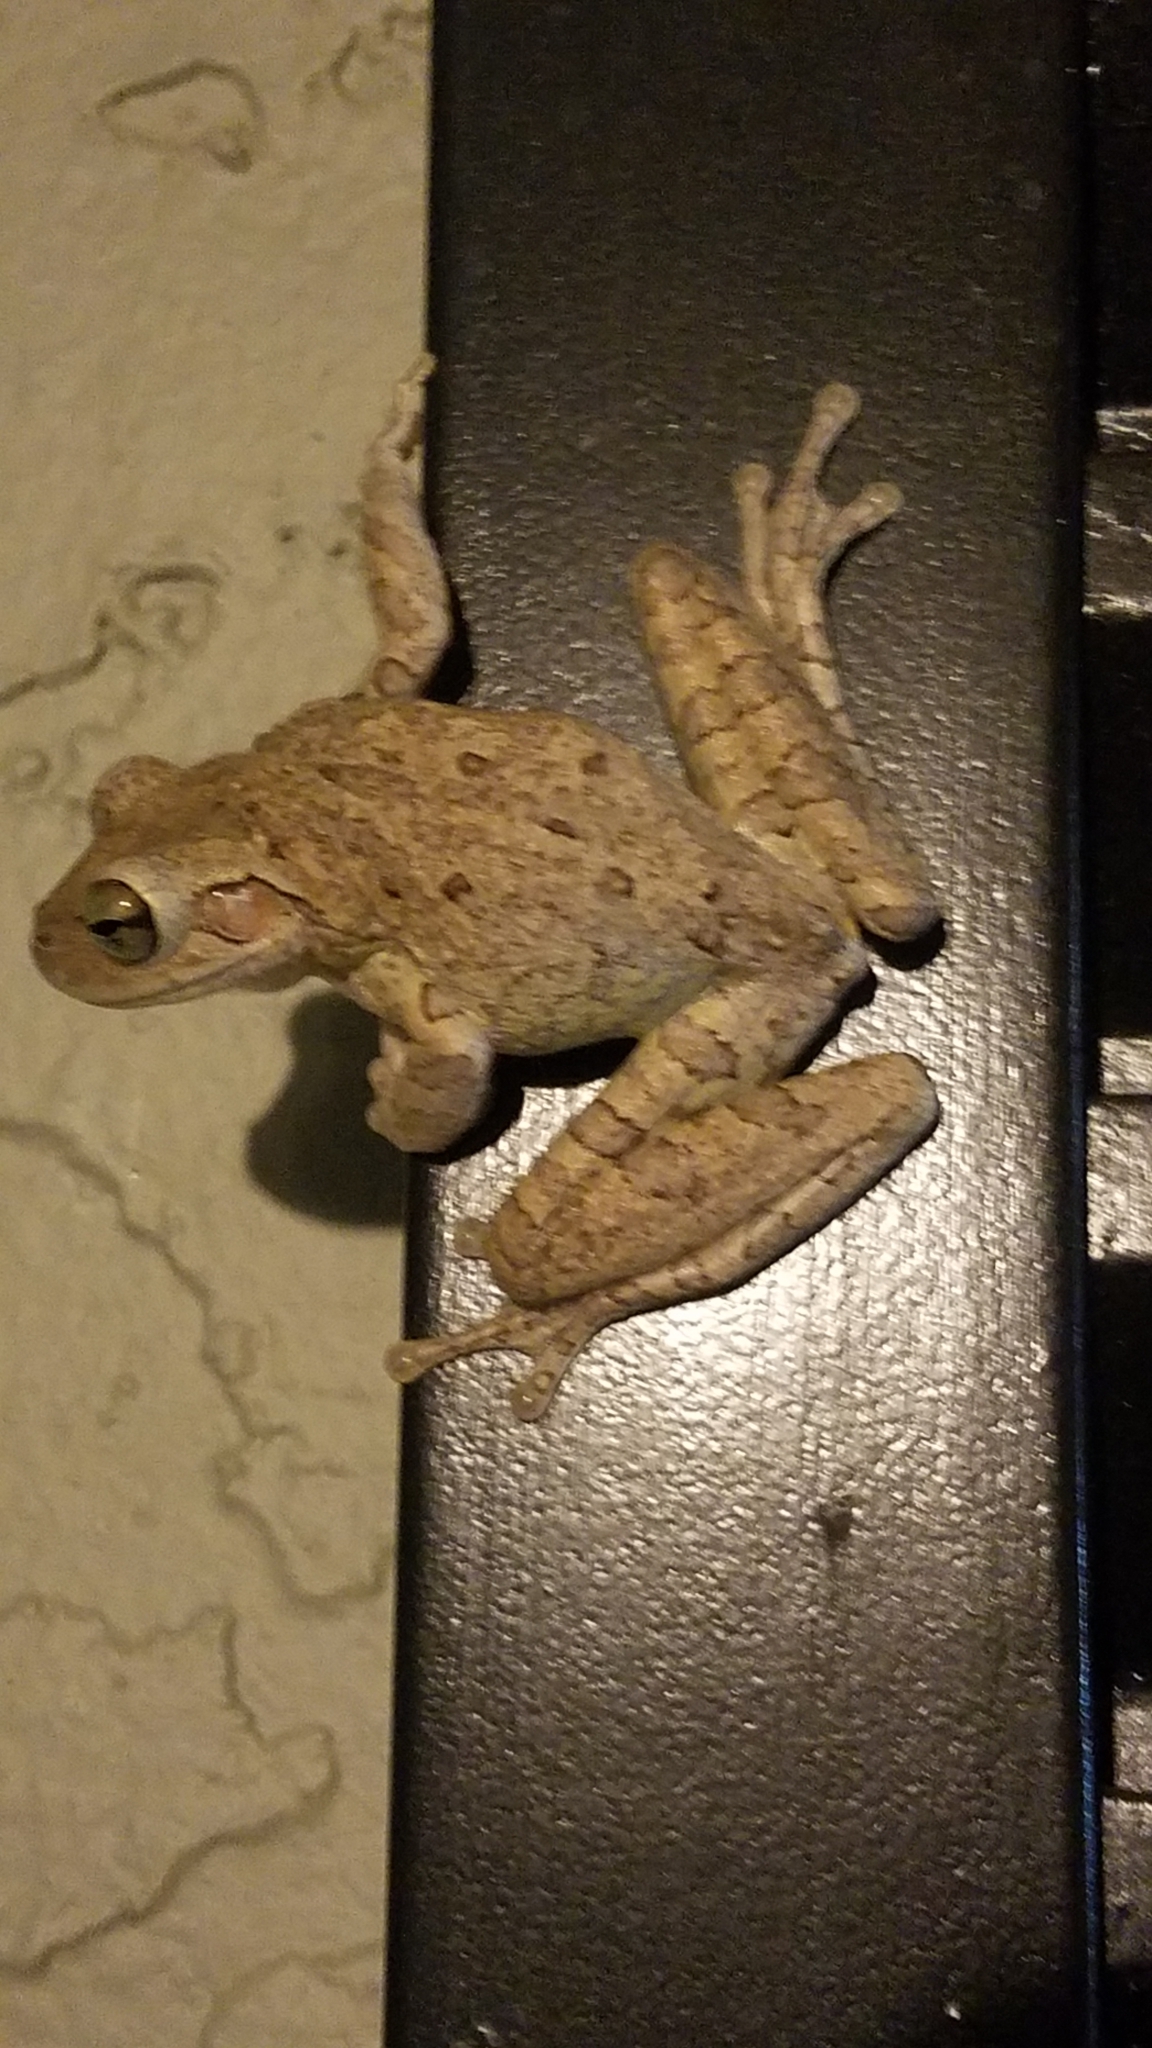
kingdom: Animalia
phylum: Chordata
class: Amphibia
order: Anura
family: Hylidae
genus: Osteopilus
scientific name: Osteopilus septentrionalis
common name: Cuban treefrog
